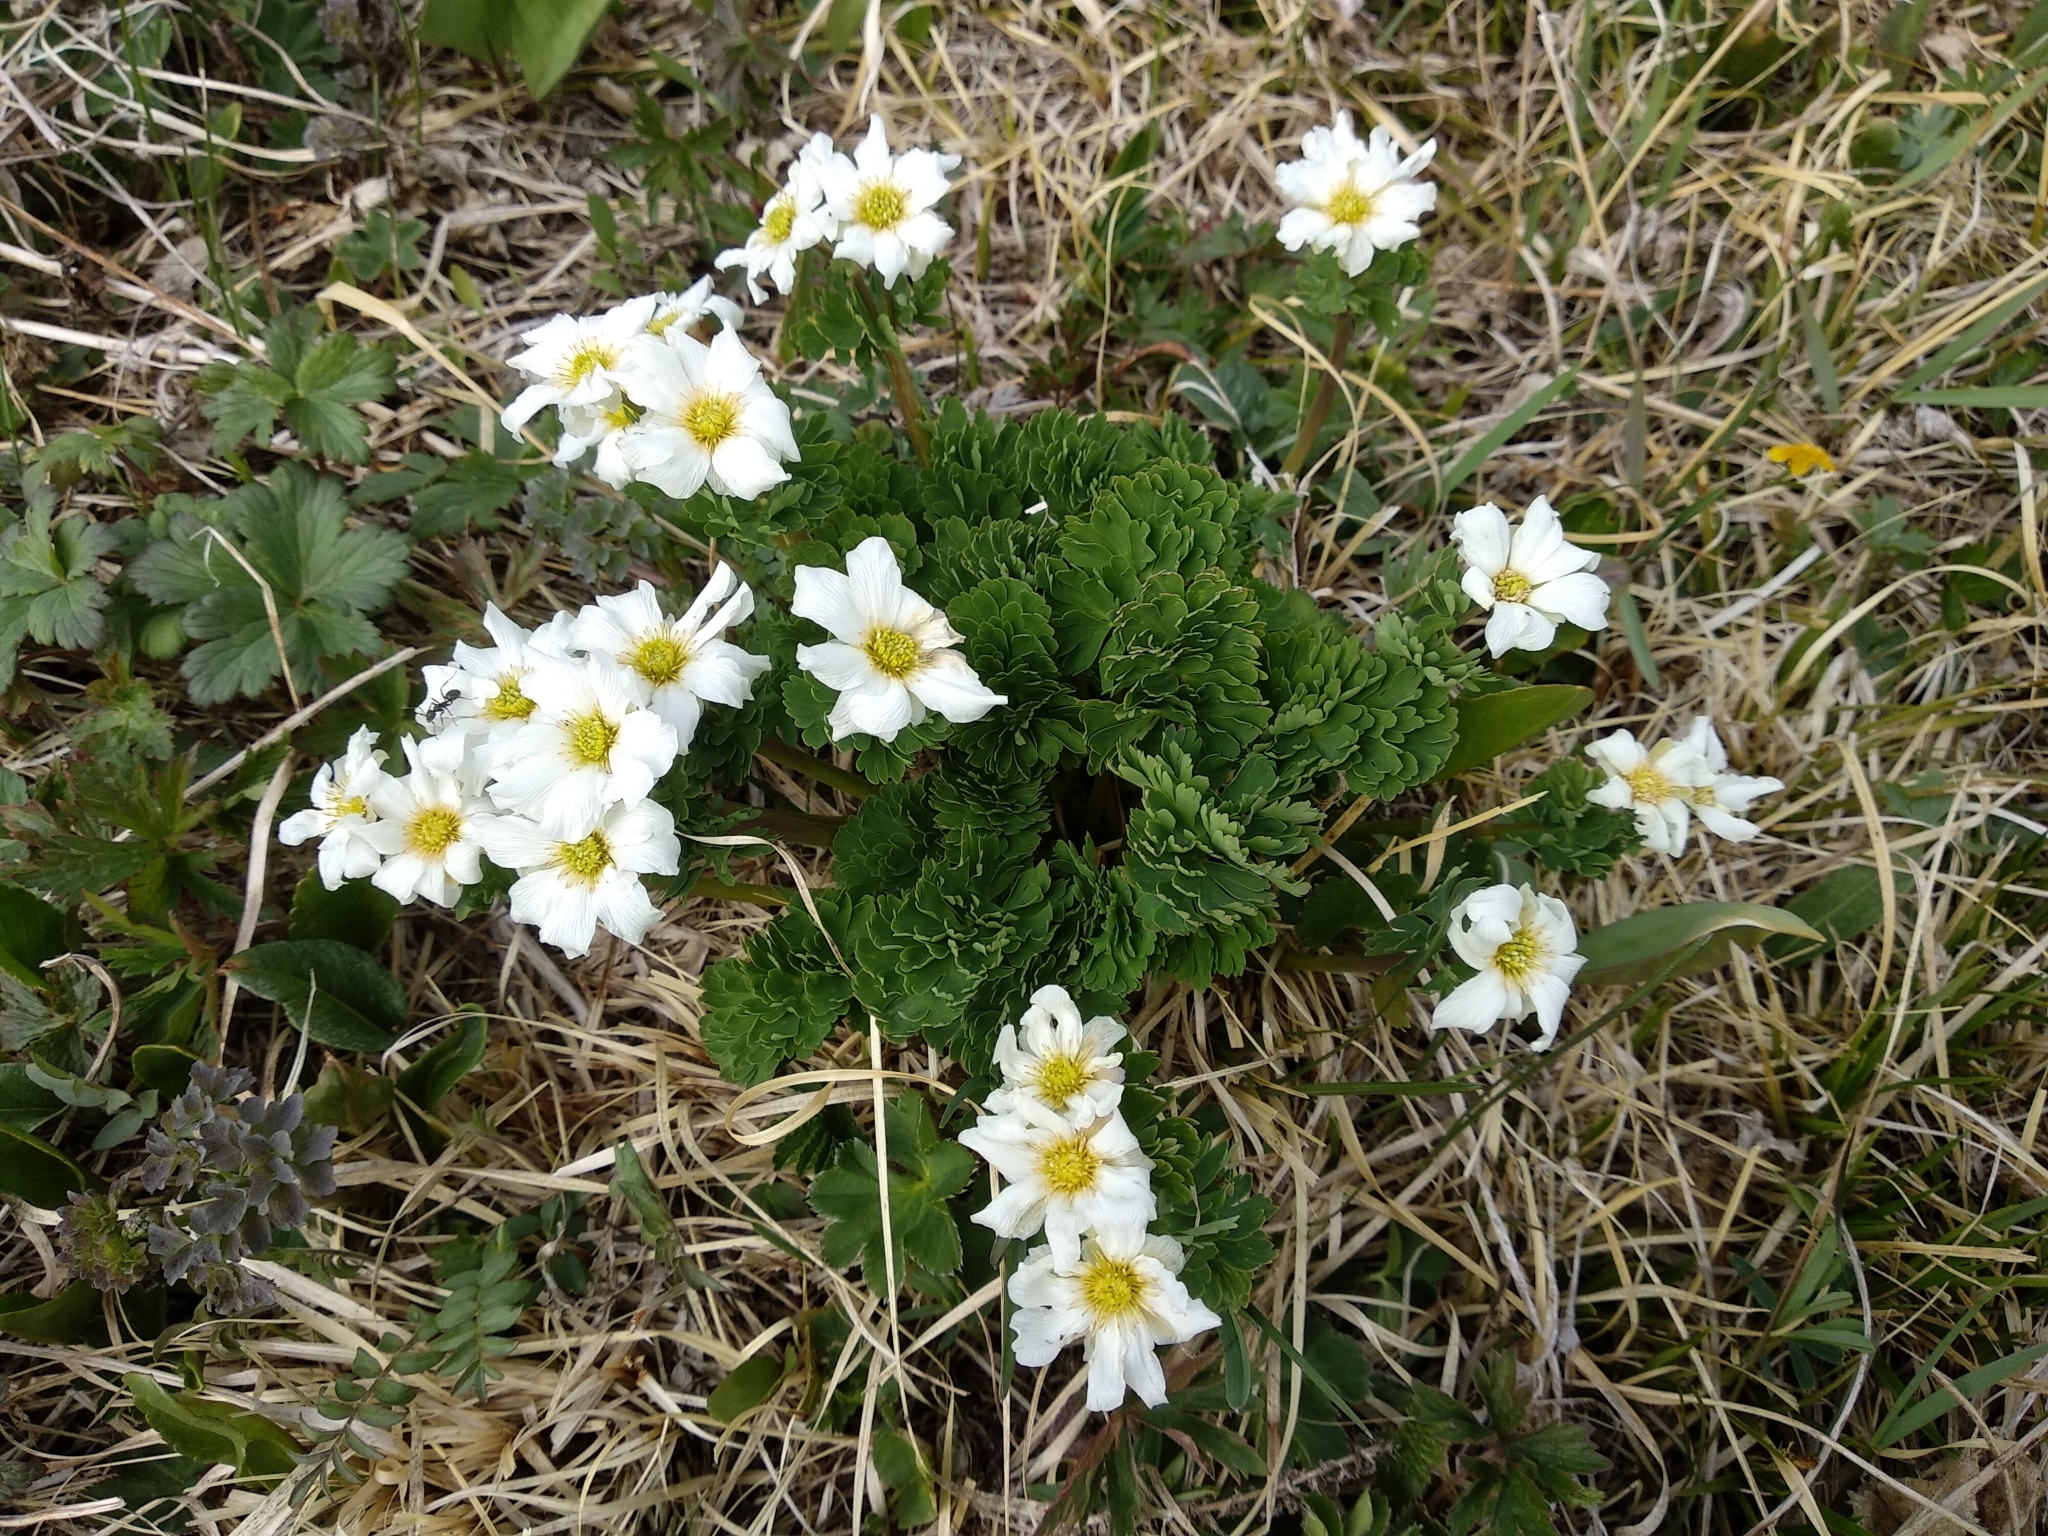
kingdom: Plantae
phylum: Tracheophyta
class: Magnoliopsida
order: Ranunculales
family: Ranunculaceae
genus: Callianthemum
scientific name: Callianthemum sajanense
